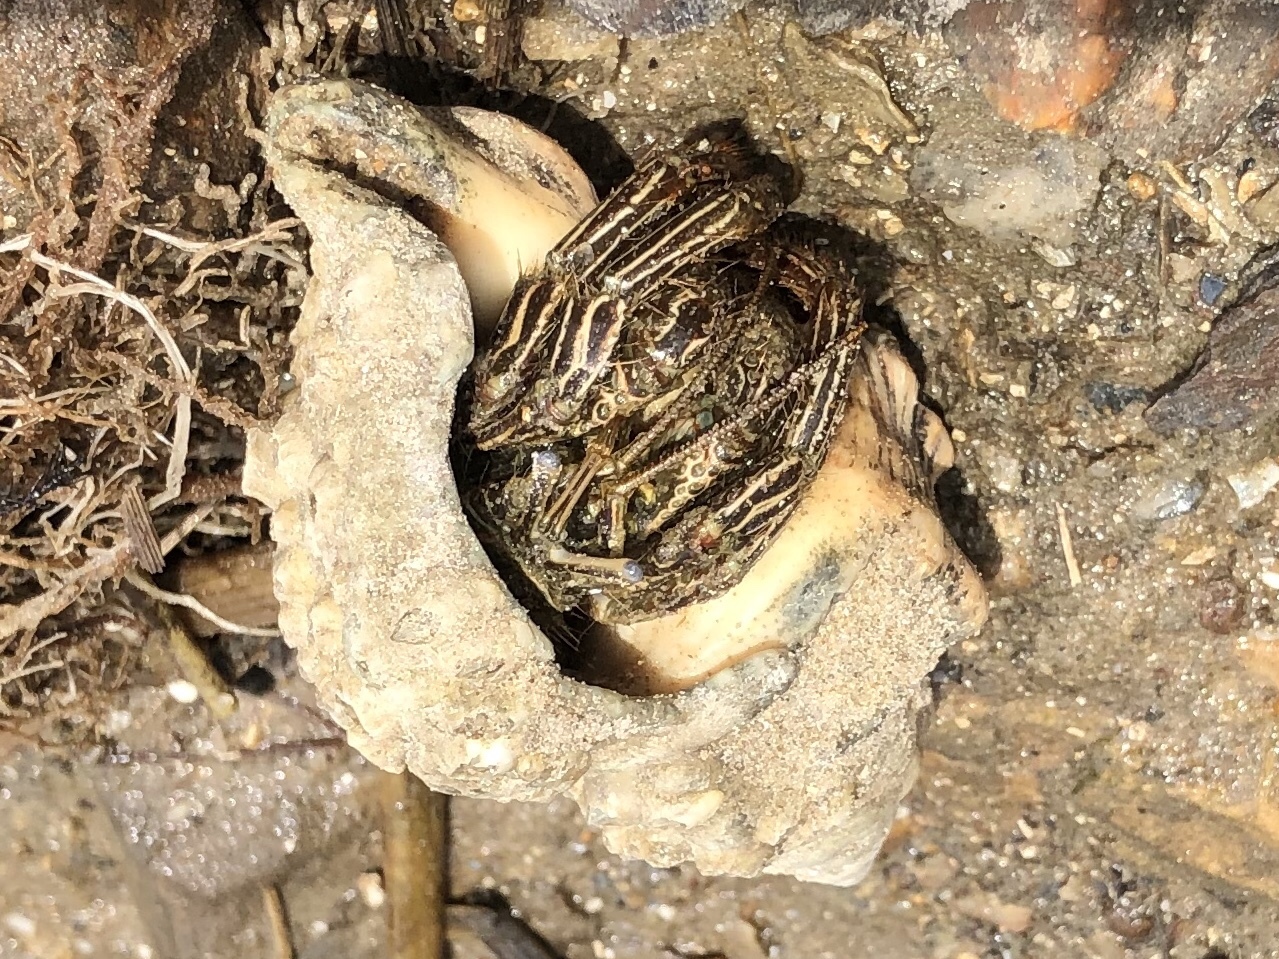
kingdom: Animalia
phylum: Arthropoda
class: Malacostraca
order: Decapoda
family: Diogenidae
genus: Clibanarius
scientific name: Clibanarius vittatus
